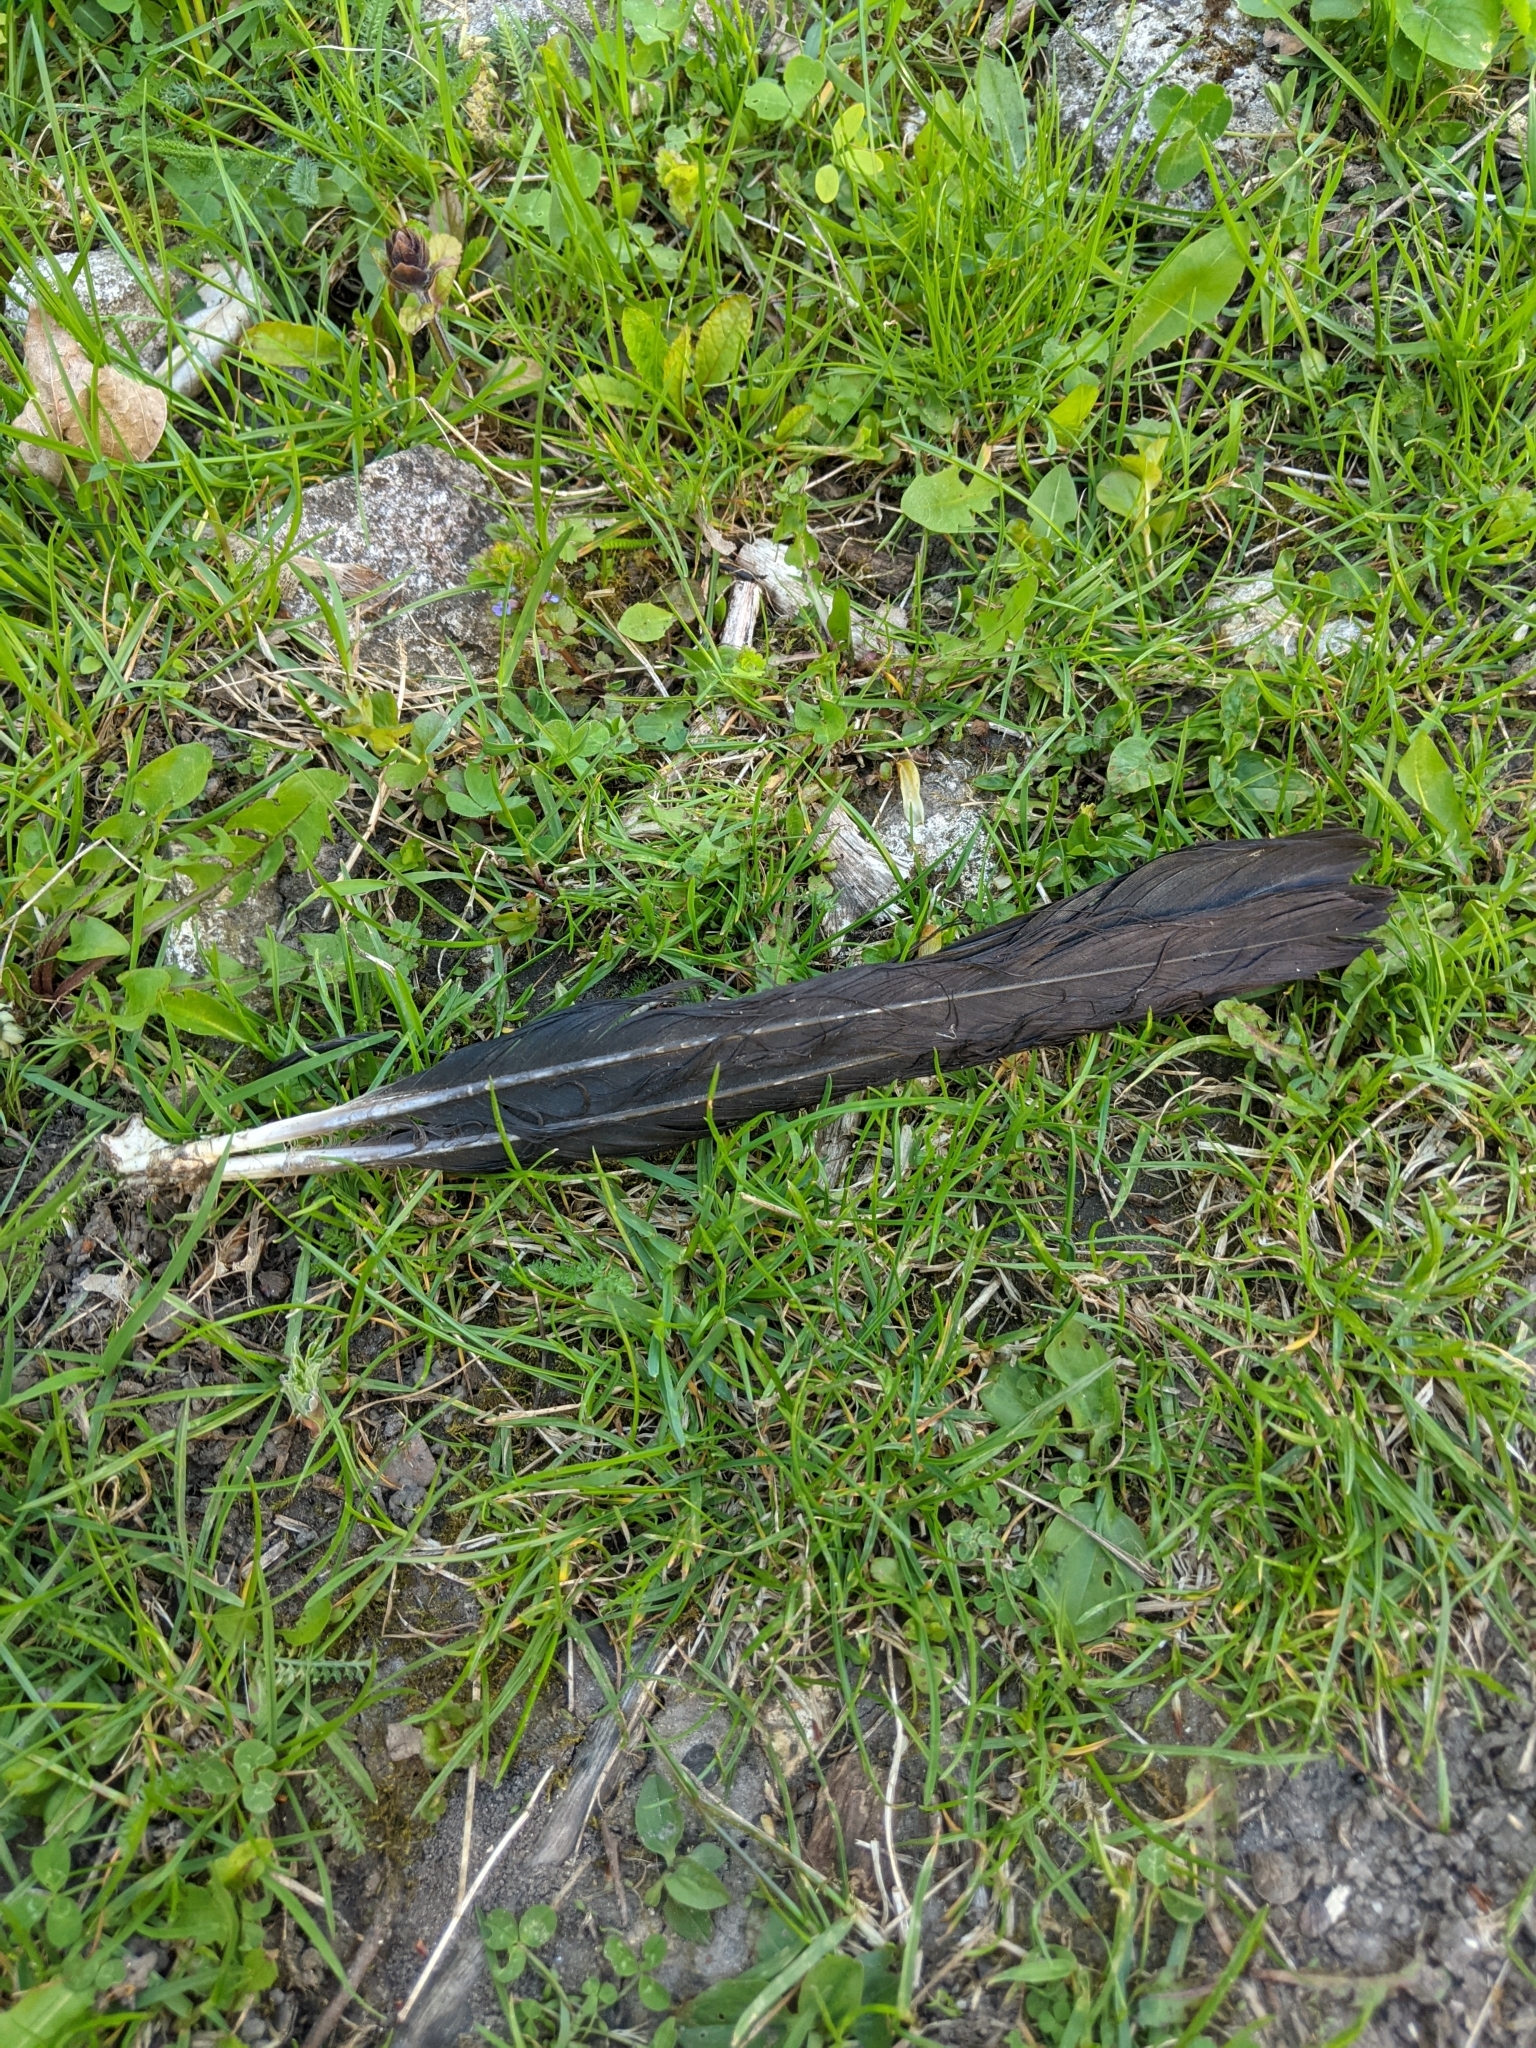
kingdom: Animalia
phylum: Chordata
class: Aves
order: Passeriformes
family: Corvidae
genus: Corvus
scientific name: Corvus
